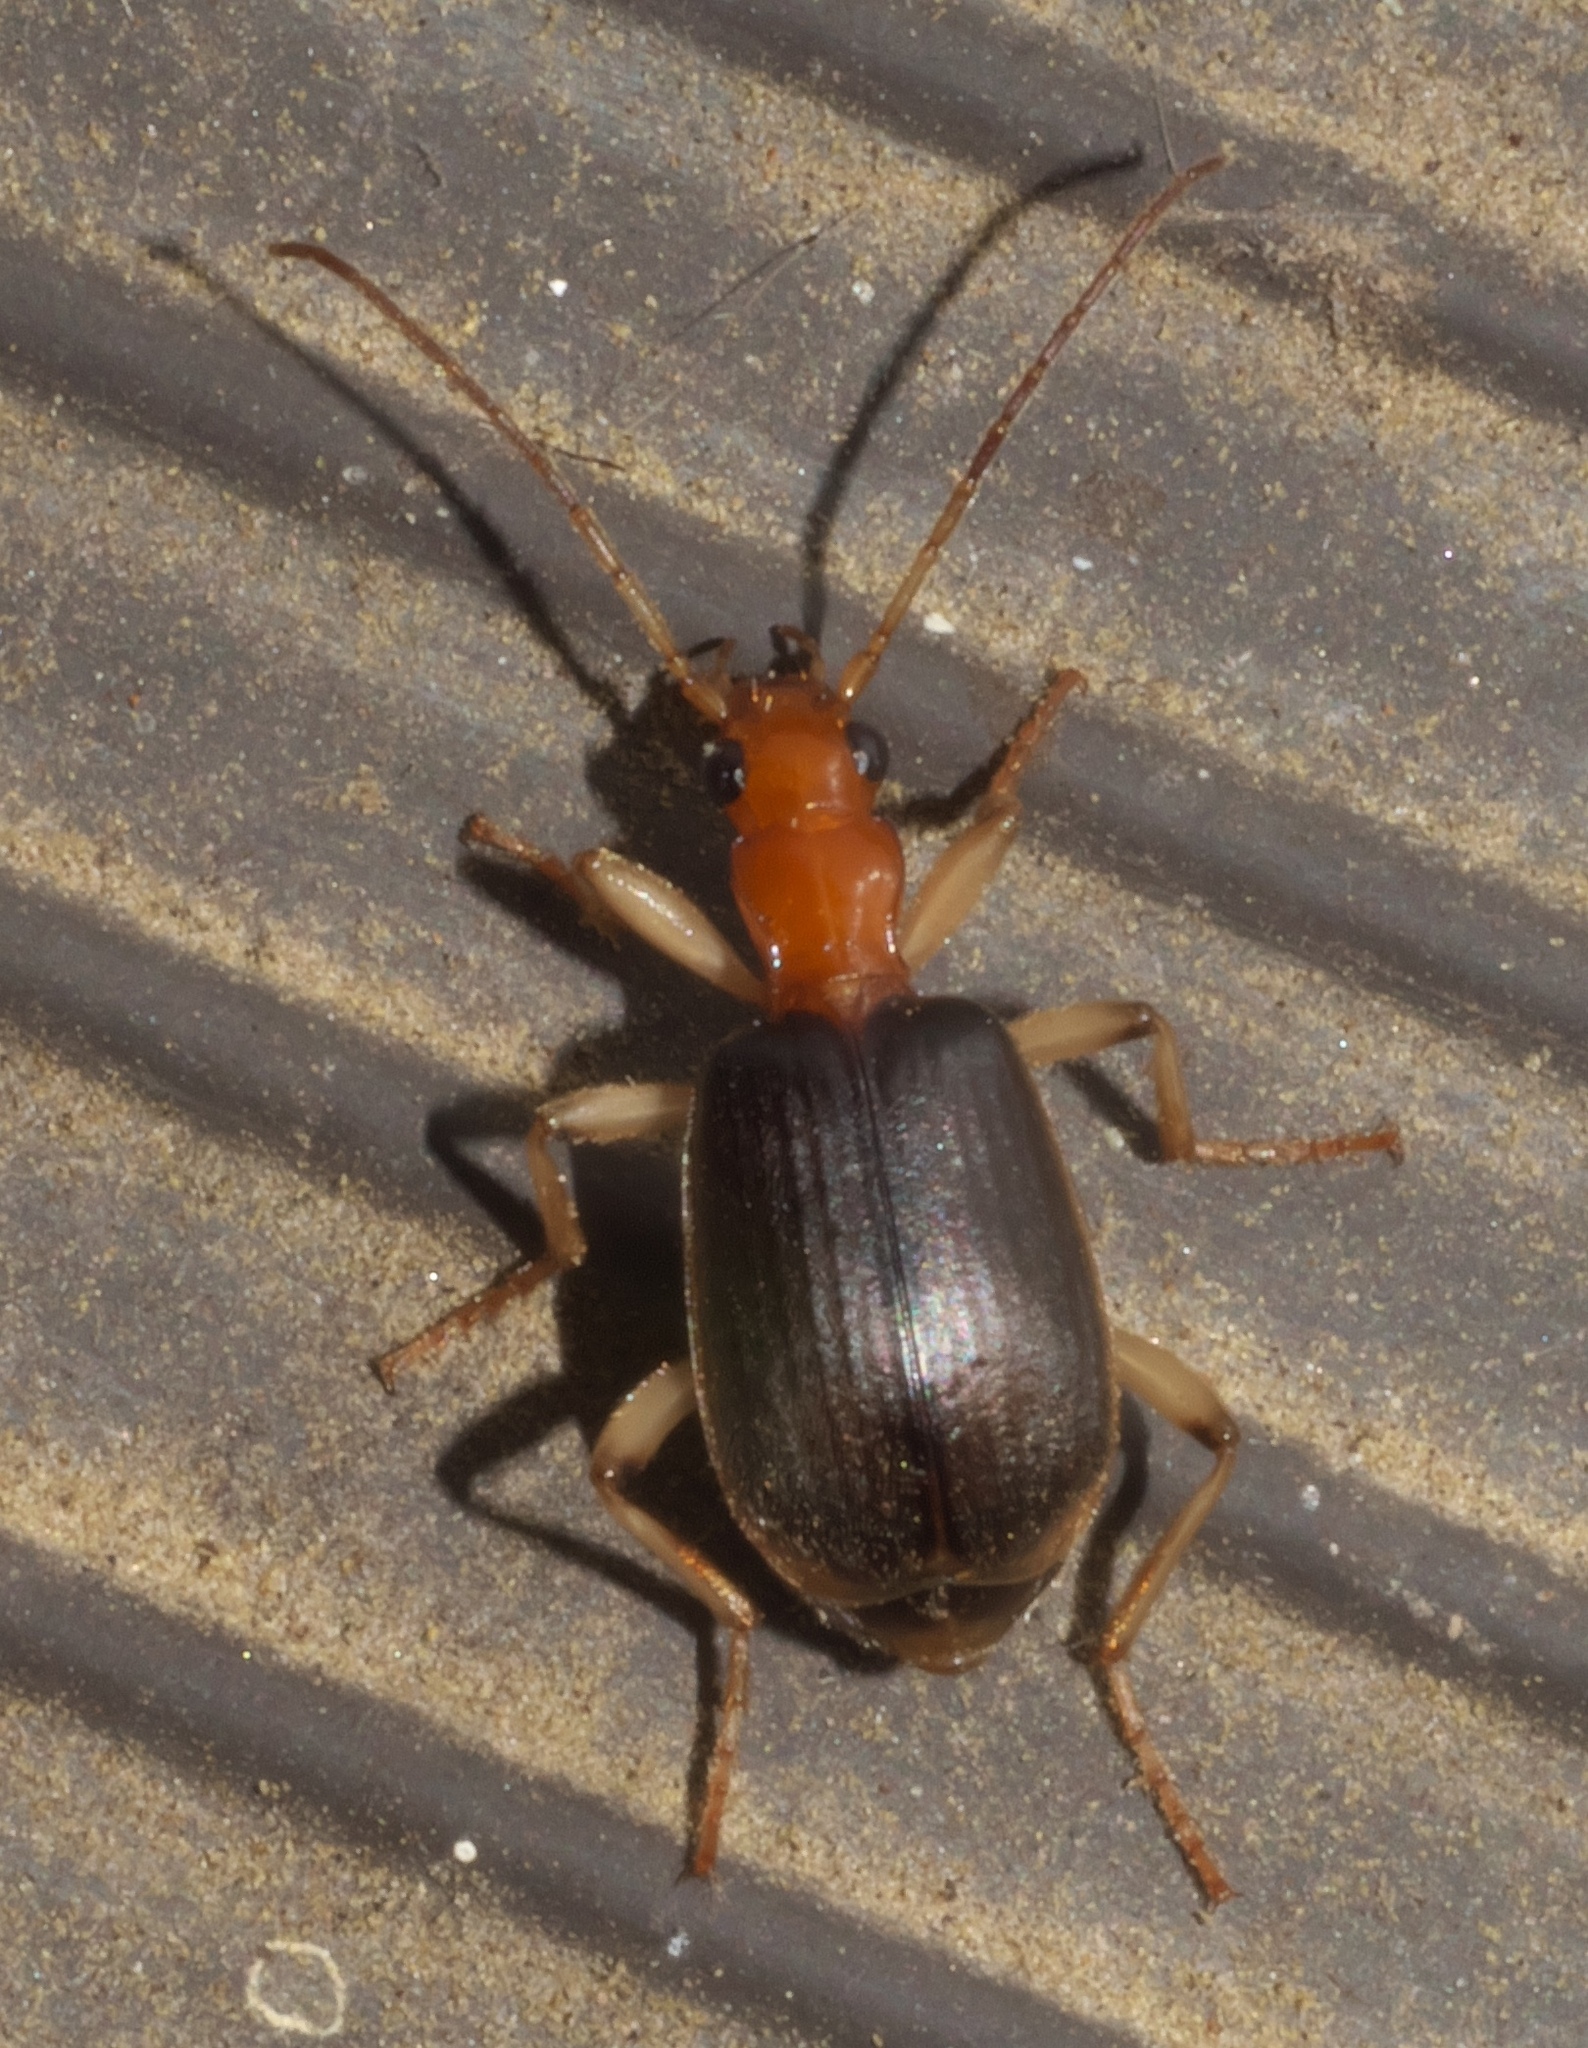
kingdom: Animalia
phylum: Arthropoda
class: Insecta
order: Coleoptera
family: Carabidae
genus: Brachinus
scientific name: Brachinus adustipennis
